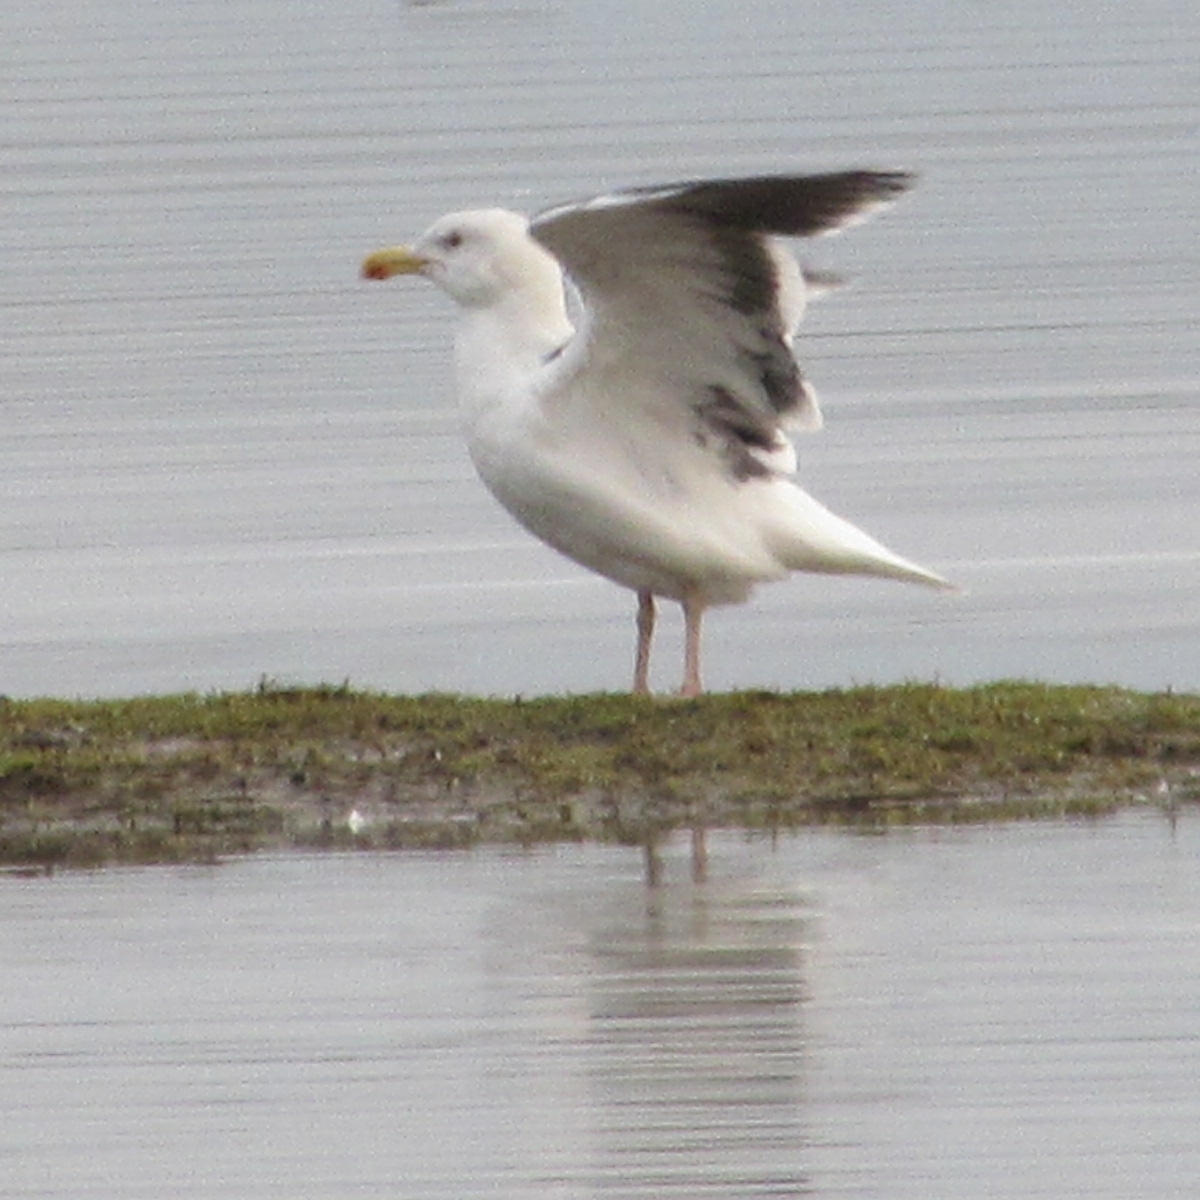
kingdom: Animalia
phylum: Chordata
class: Aves
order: Charadriiformes
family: Laridae
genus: Larus
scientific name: Larus marinus
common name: Great black-backed gull
